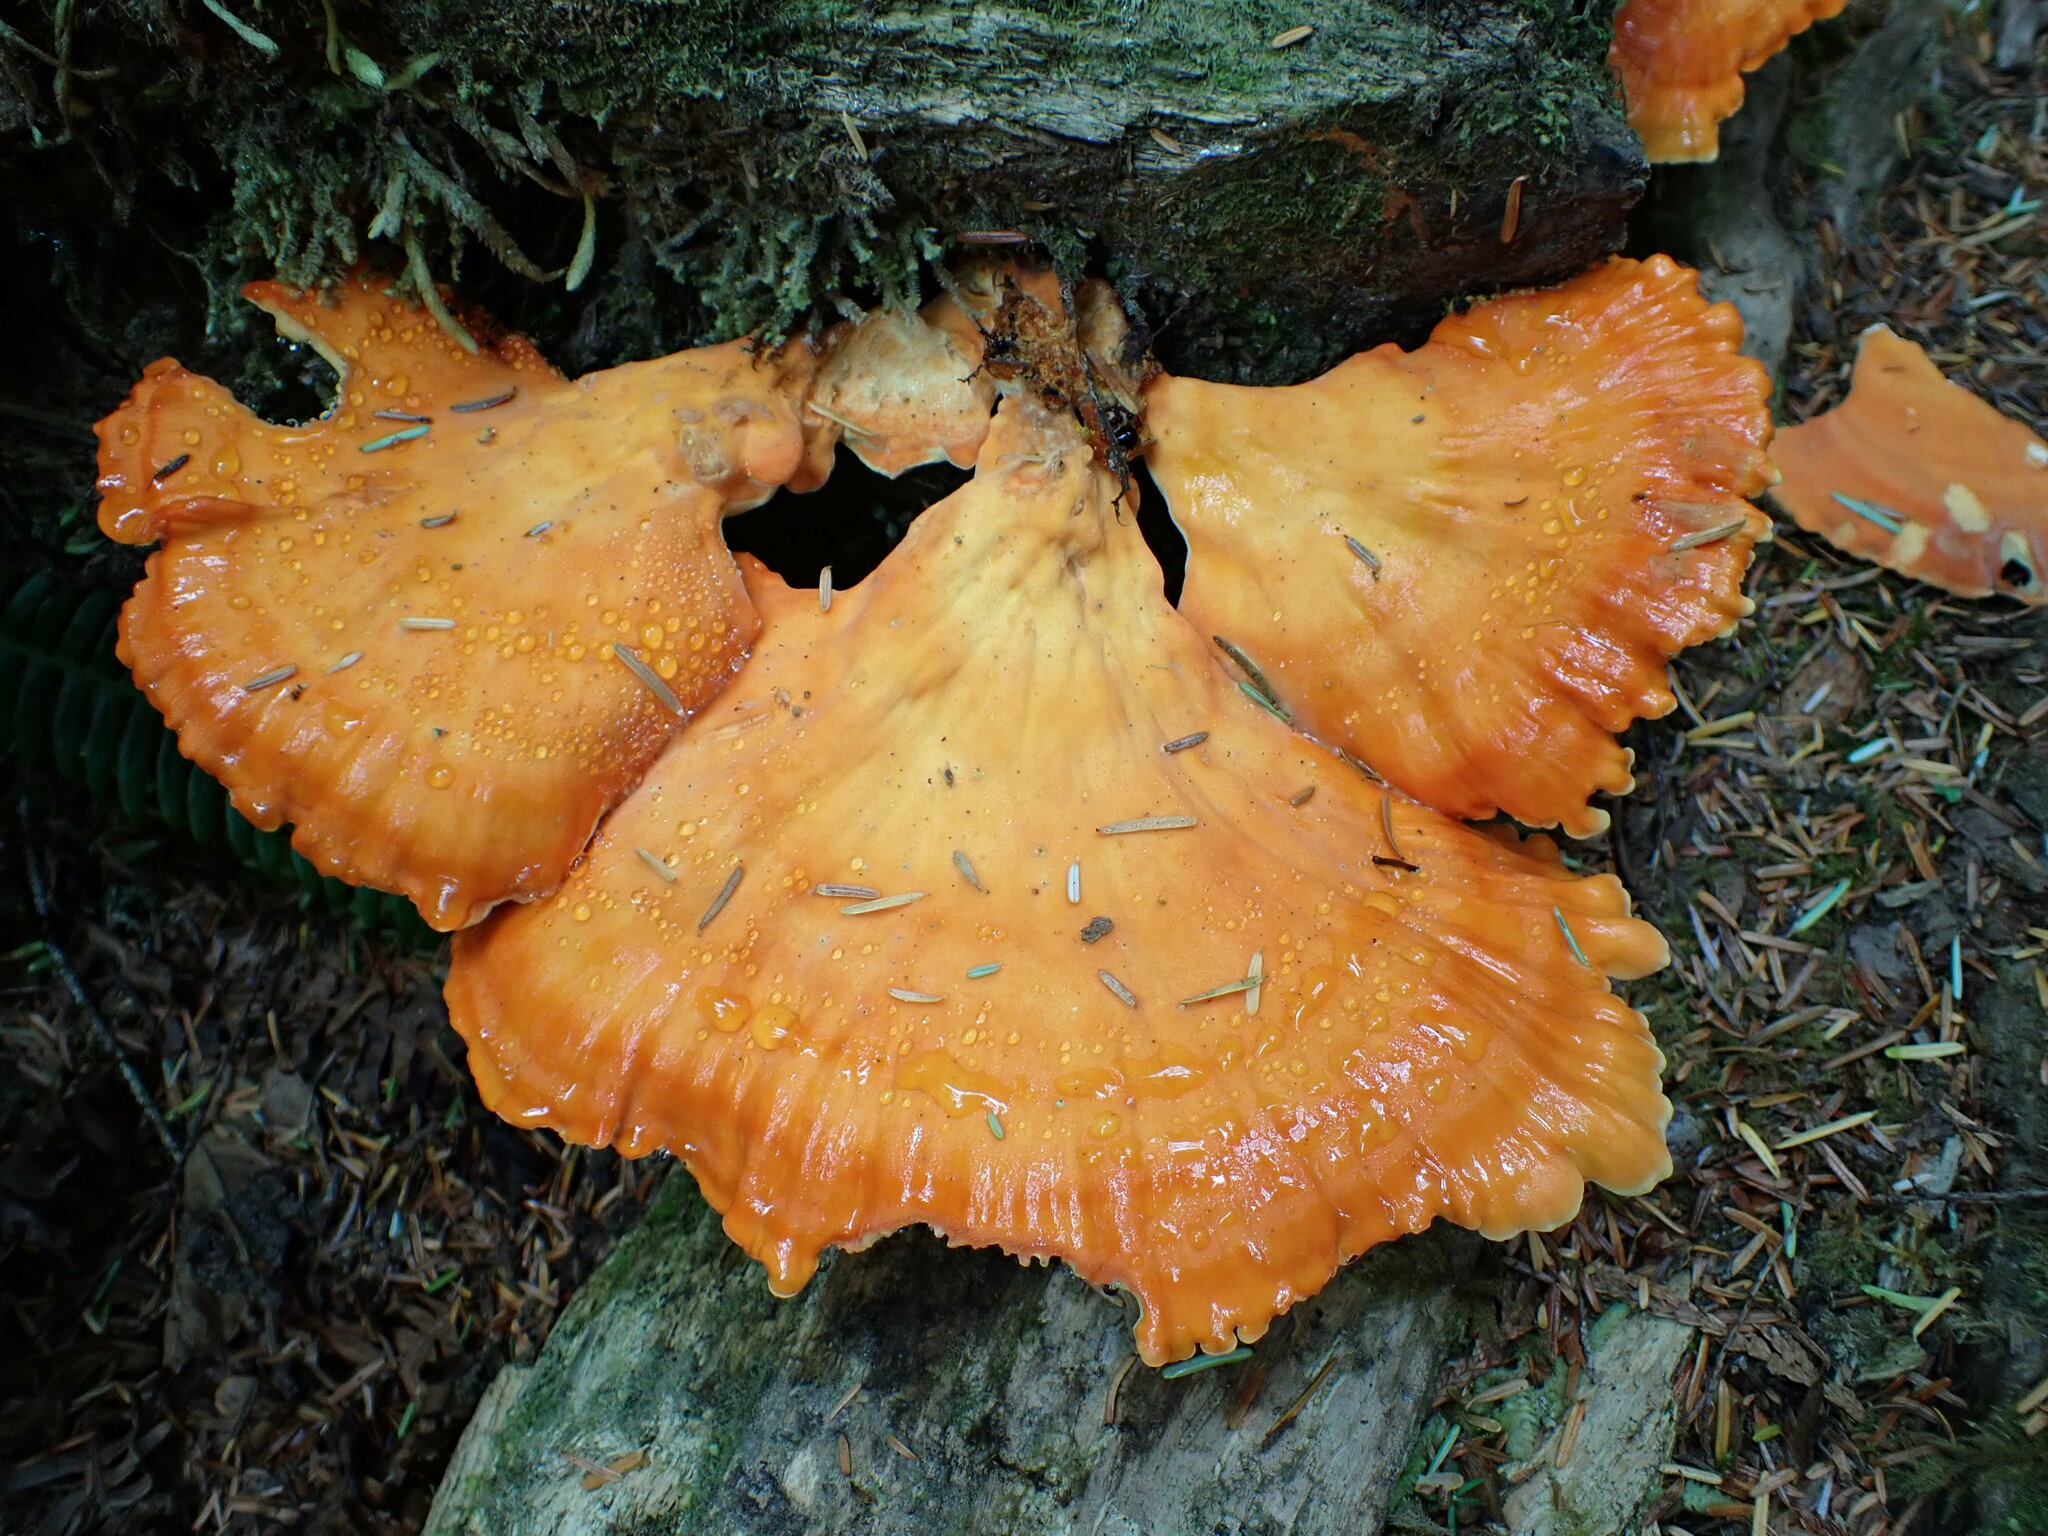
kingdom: Fungi
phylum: Basidiomycota
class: Agaricomycetes
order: Polyporales
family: Laetiporaceae
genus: Laetiporus
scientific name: Laetiporus conifericola
